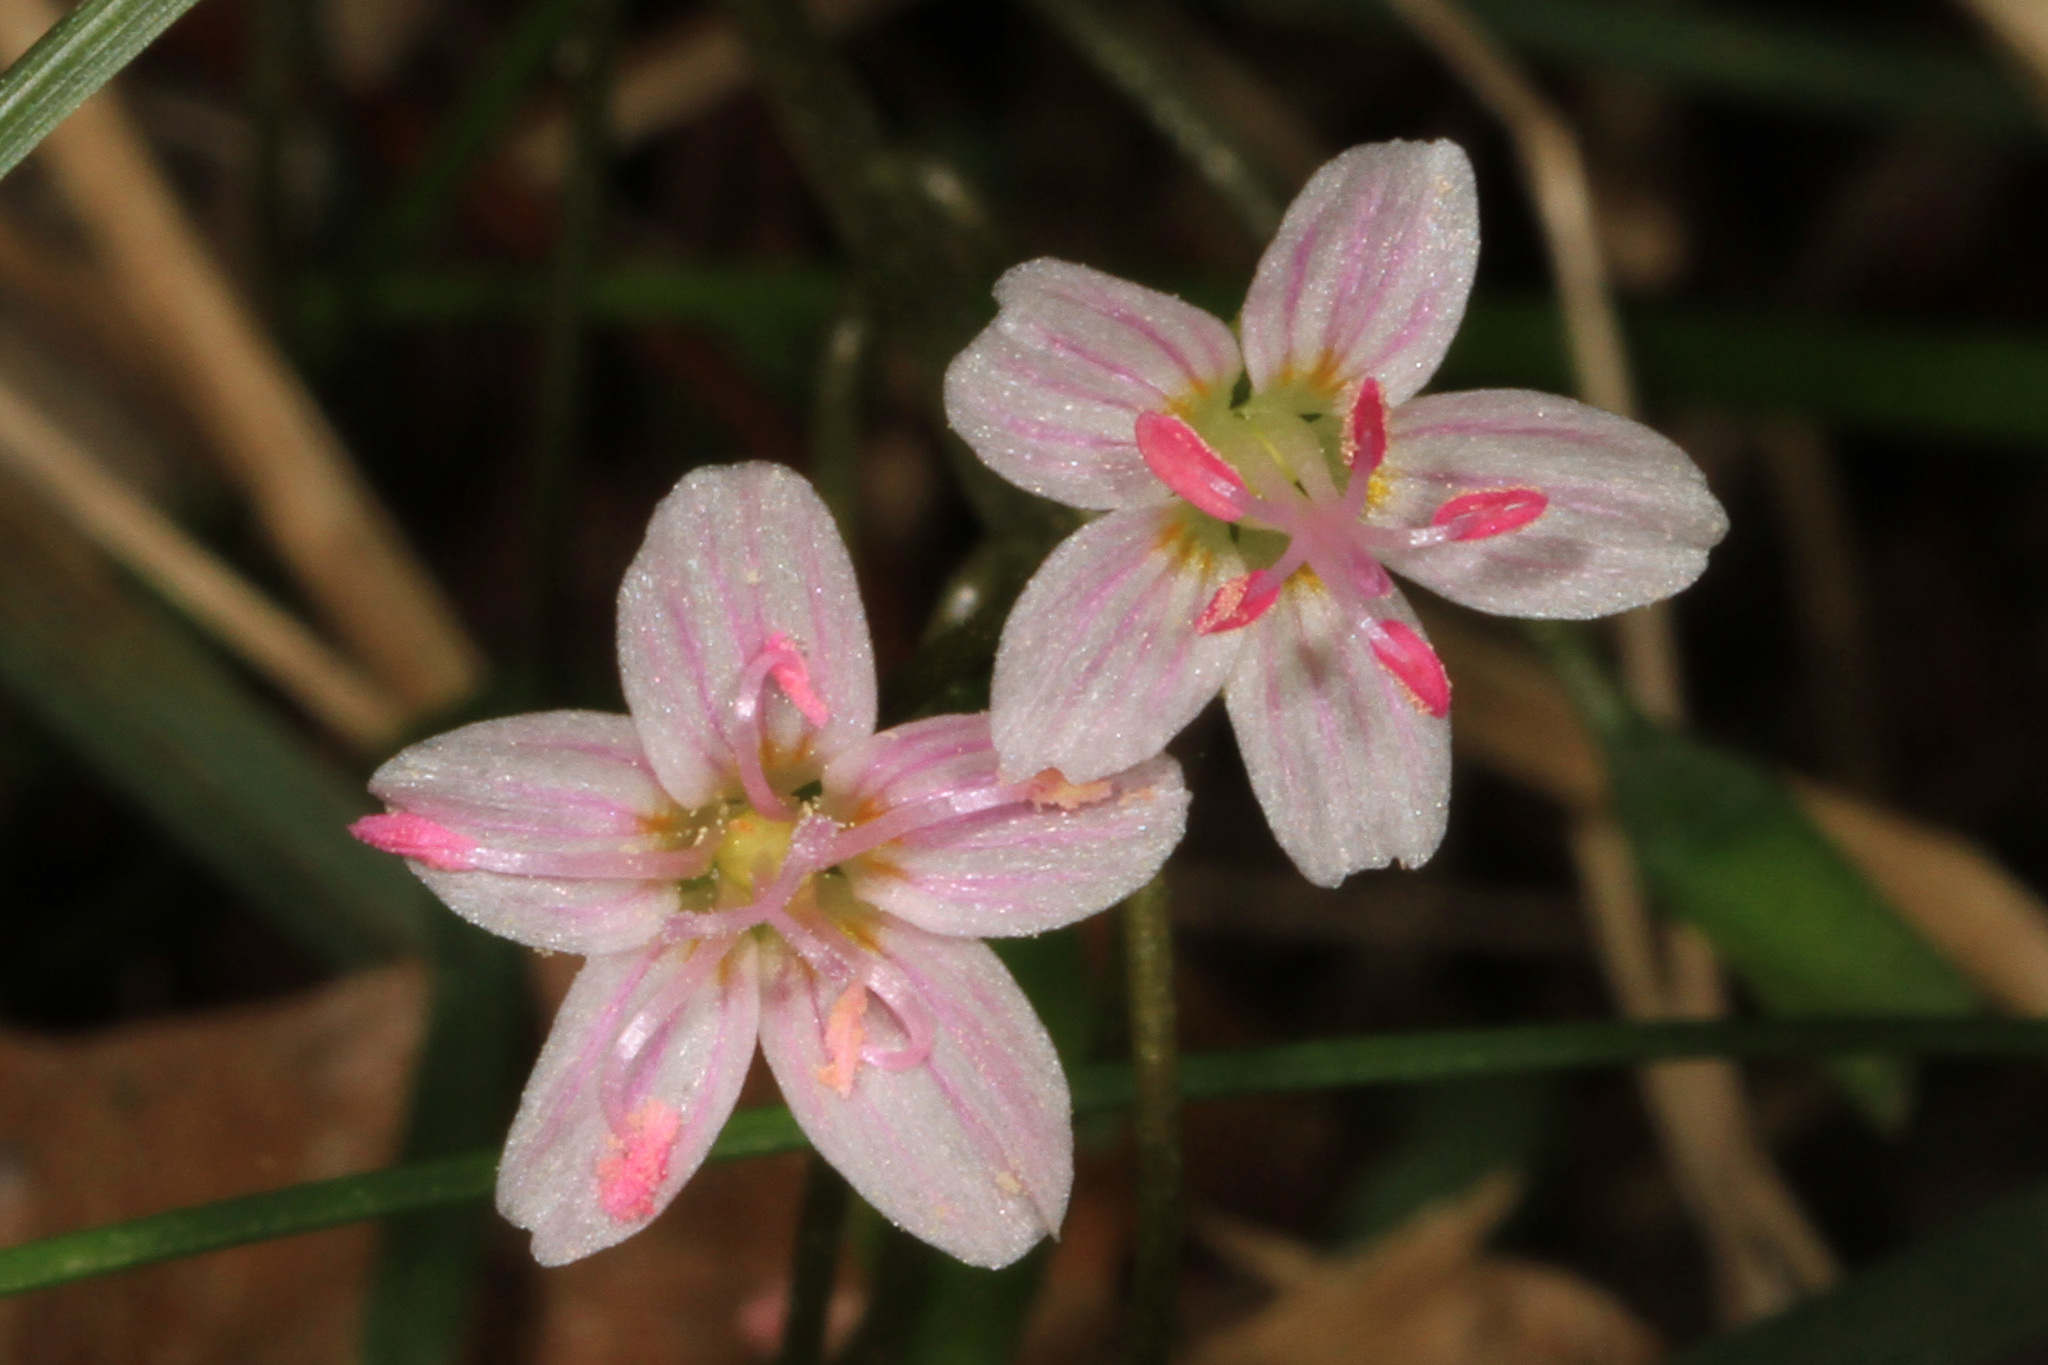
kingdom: Plantae
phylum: Tracheophyta
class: Magnoliopsida
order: Caryophyllales
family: Montiaceae
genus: Claytonia
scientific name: Claytonia virginica
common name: Virginia springbeauty
